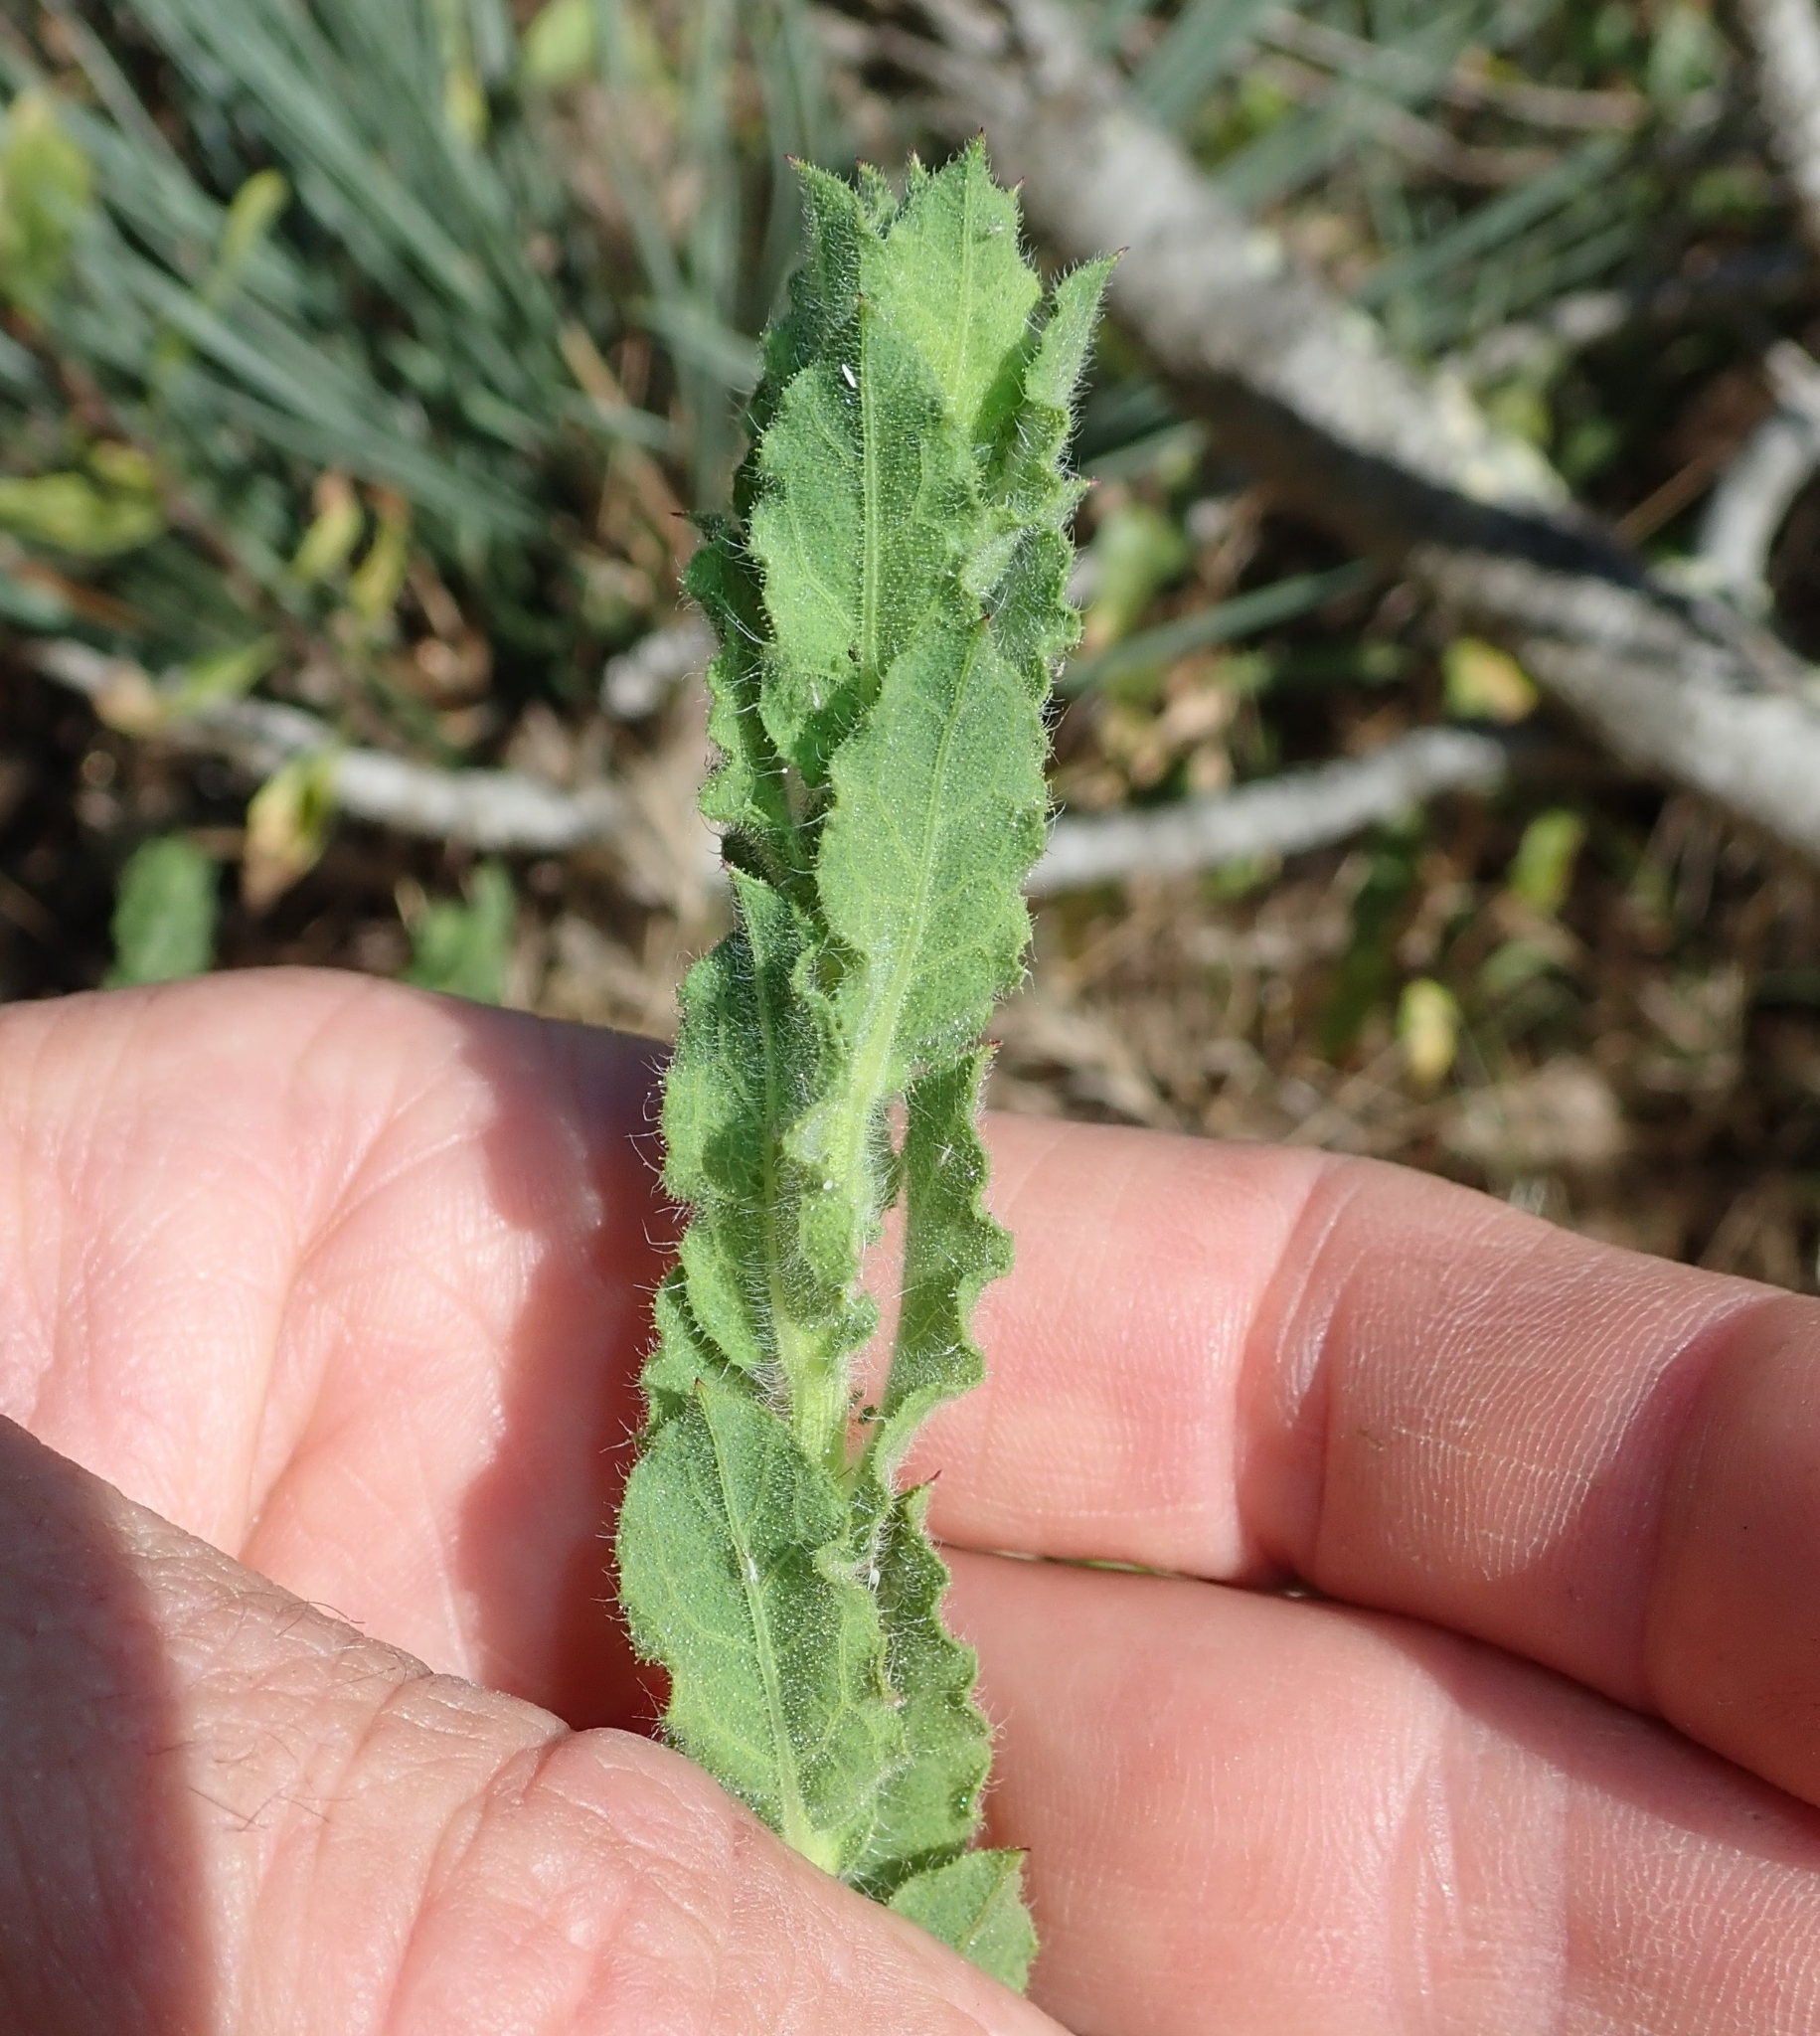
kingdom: Plantae
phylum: Tracheophyta
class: Magnoliopsida
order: Asterales
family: Asteraceae
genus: Laennecia
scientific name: Laennecia coulteri
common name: Coulter's woolwort
